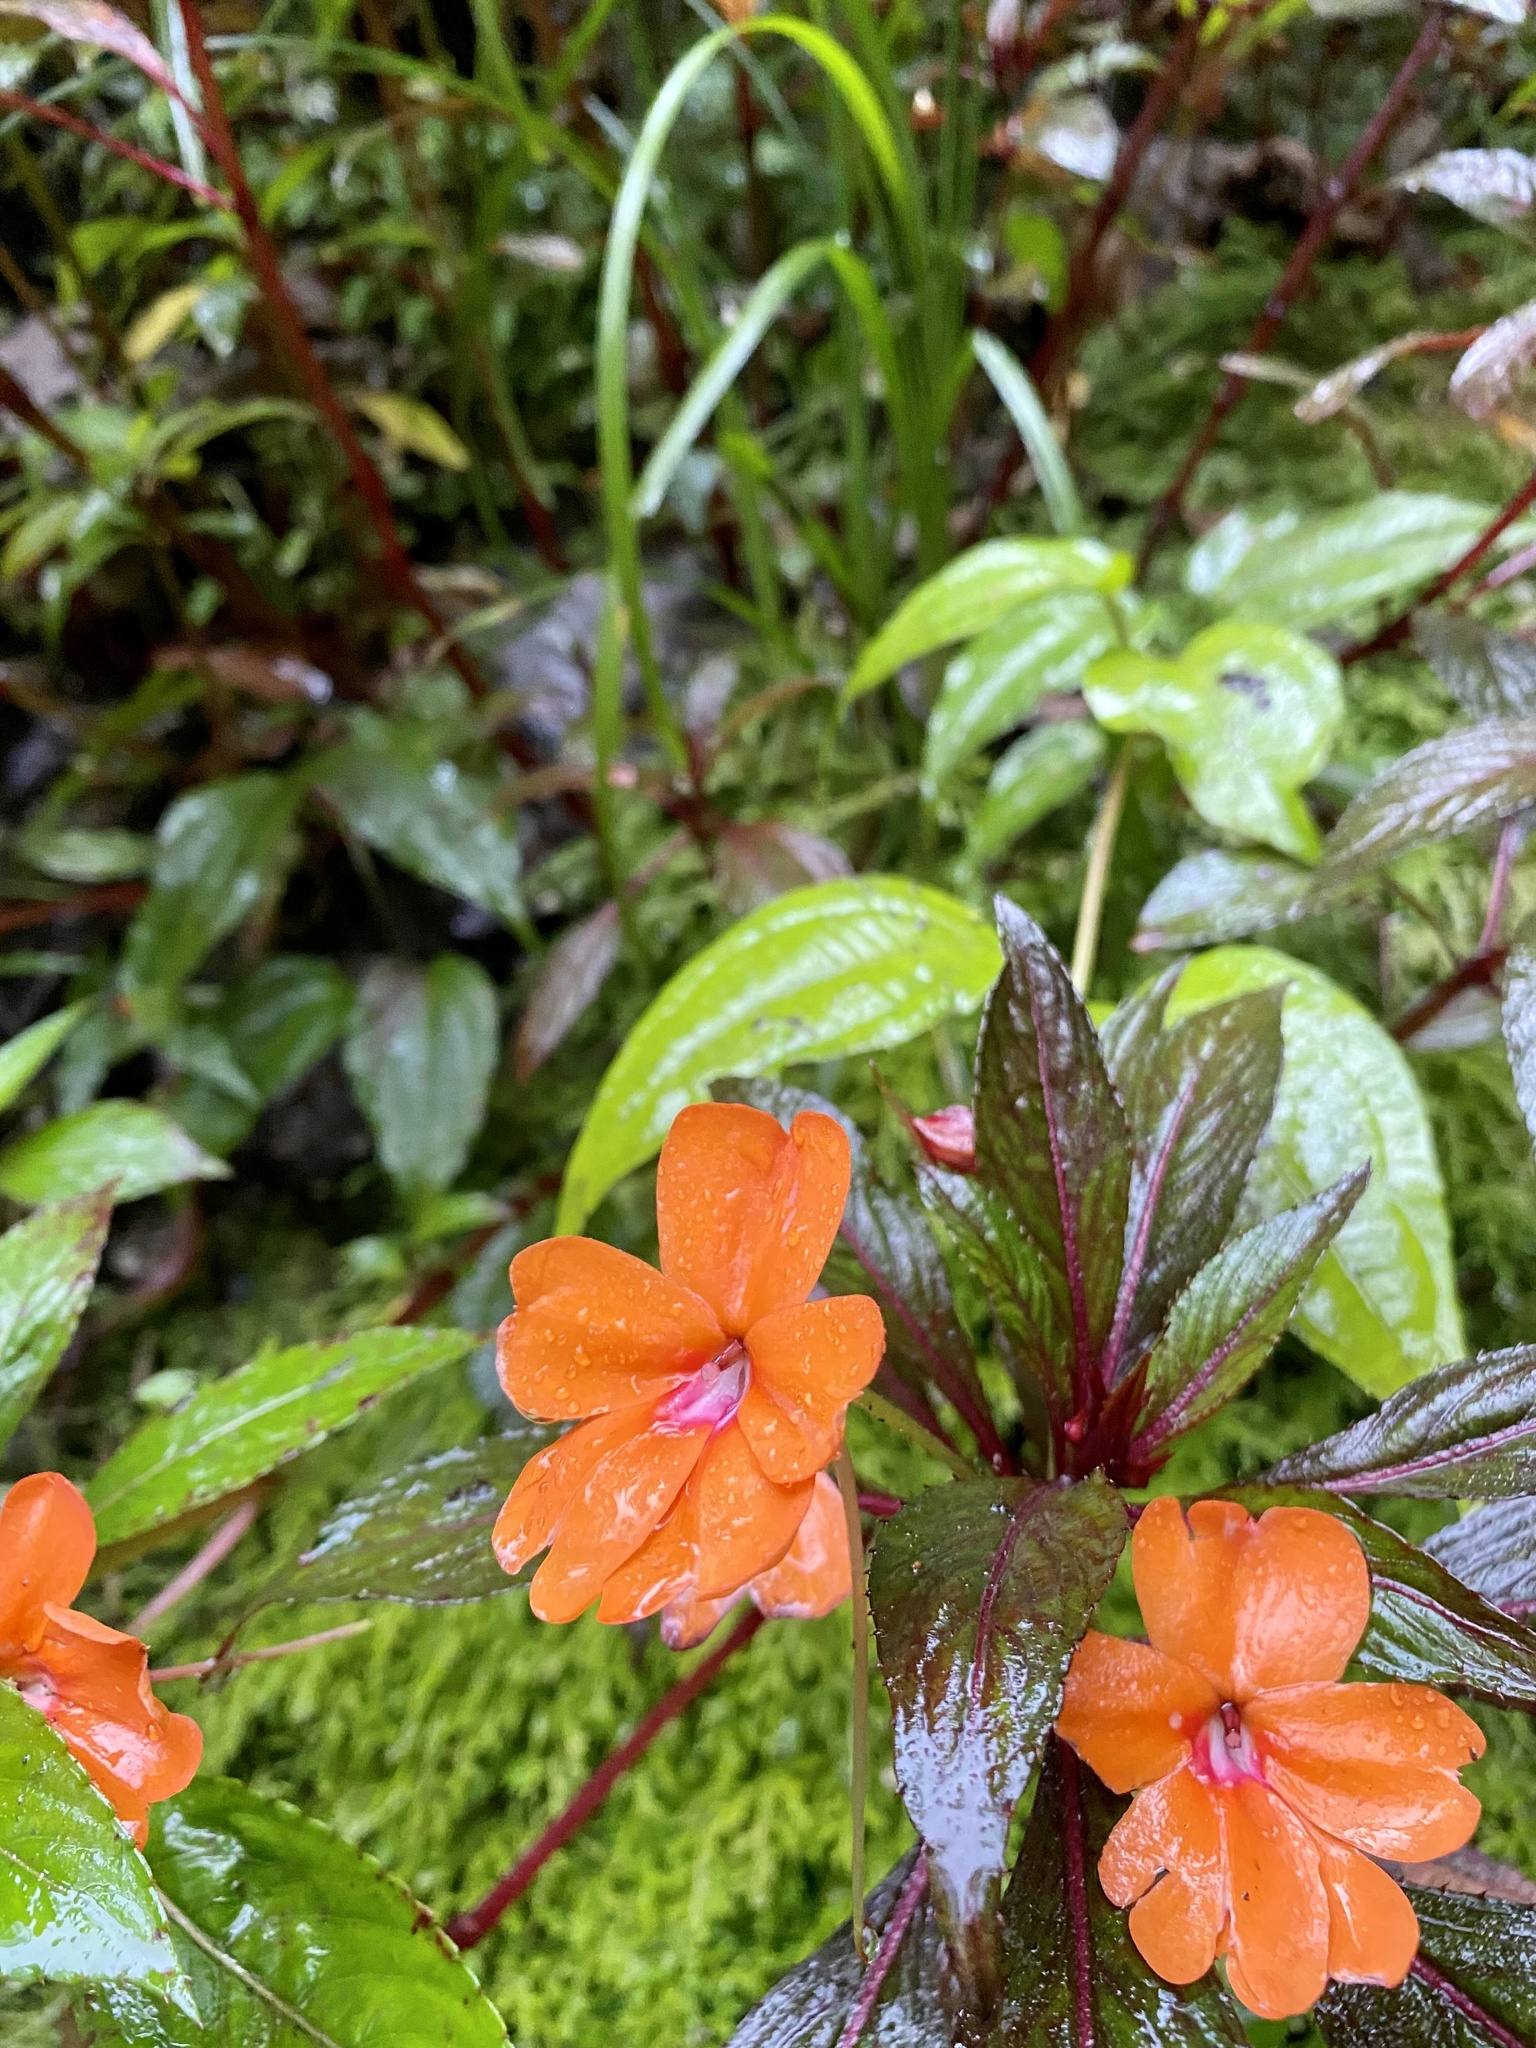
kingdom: Plantae
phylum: Tracheophyta
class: Magnoliopsida
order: Ericales
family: Balsaminaceae
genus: Impatiens
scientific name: Impatiens hawkeri
